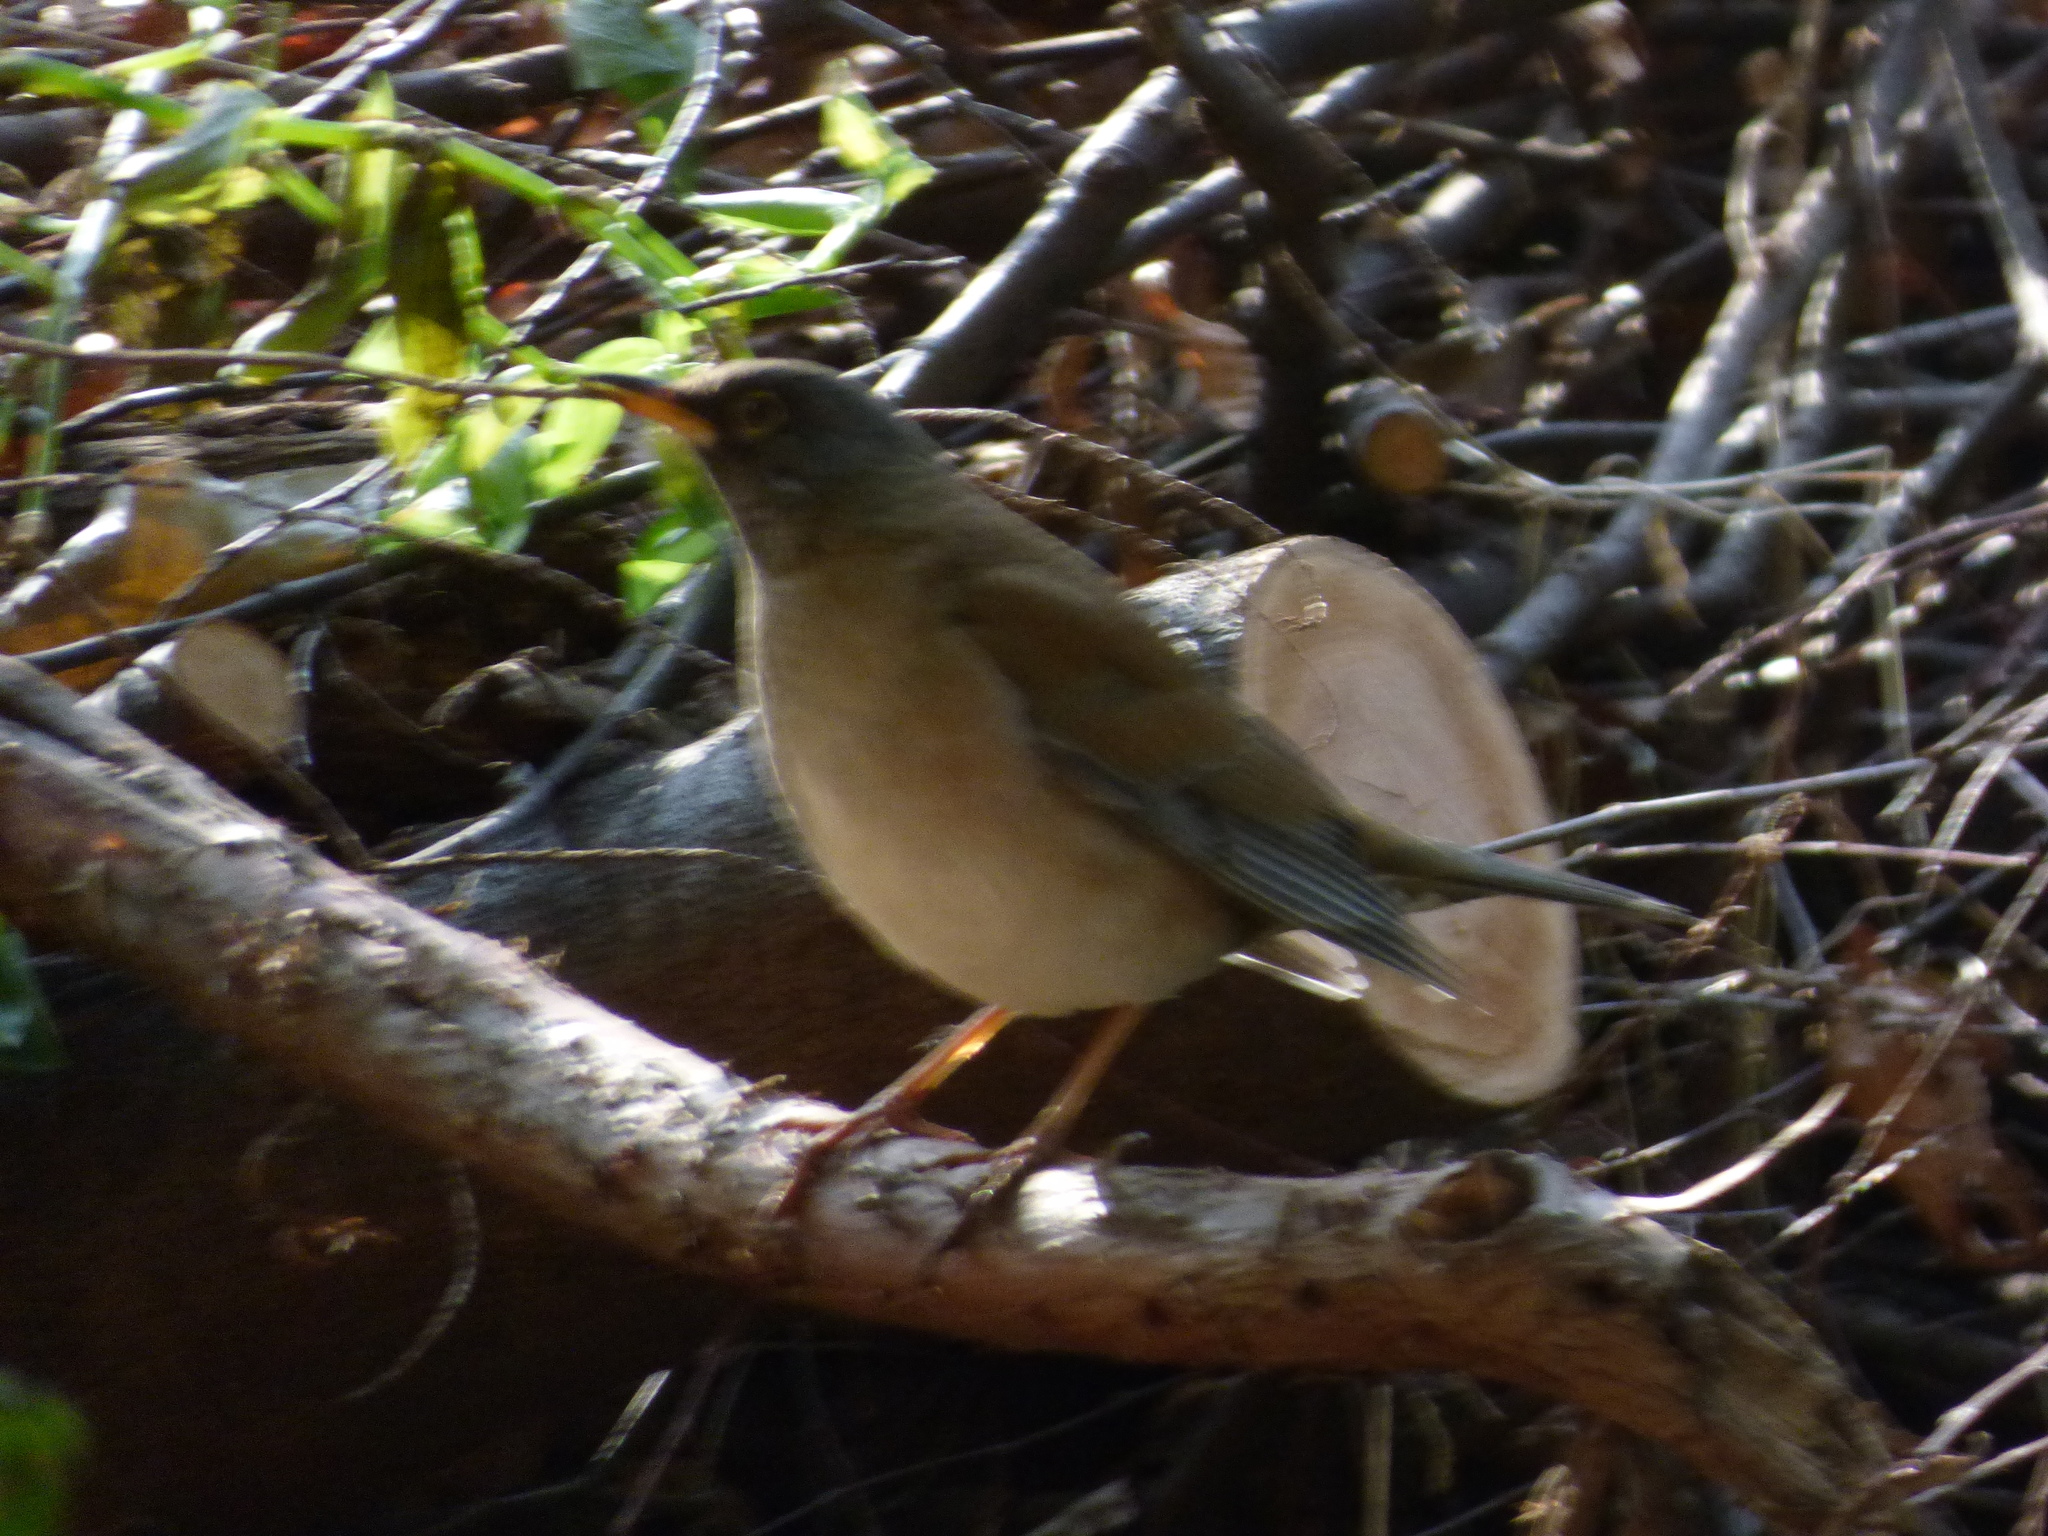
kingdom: Animalia
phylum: Chordata
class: Aves
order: Passeriformes
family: Turdidae
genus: Turdus
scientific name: Turdus pallidus
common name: Pale thrush
